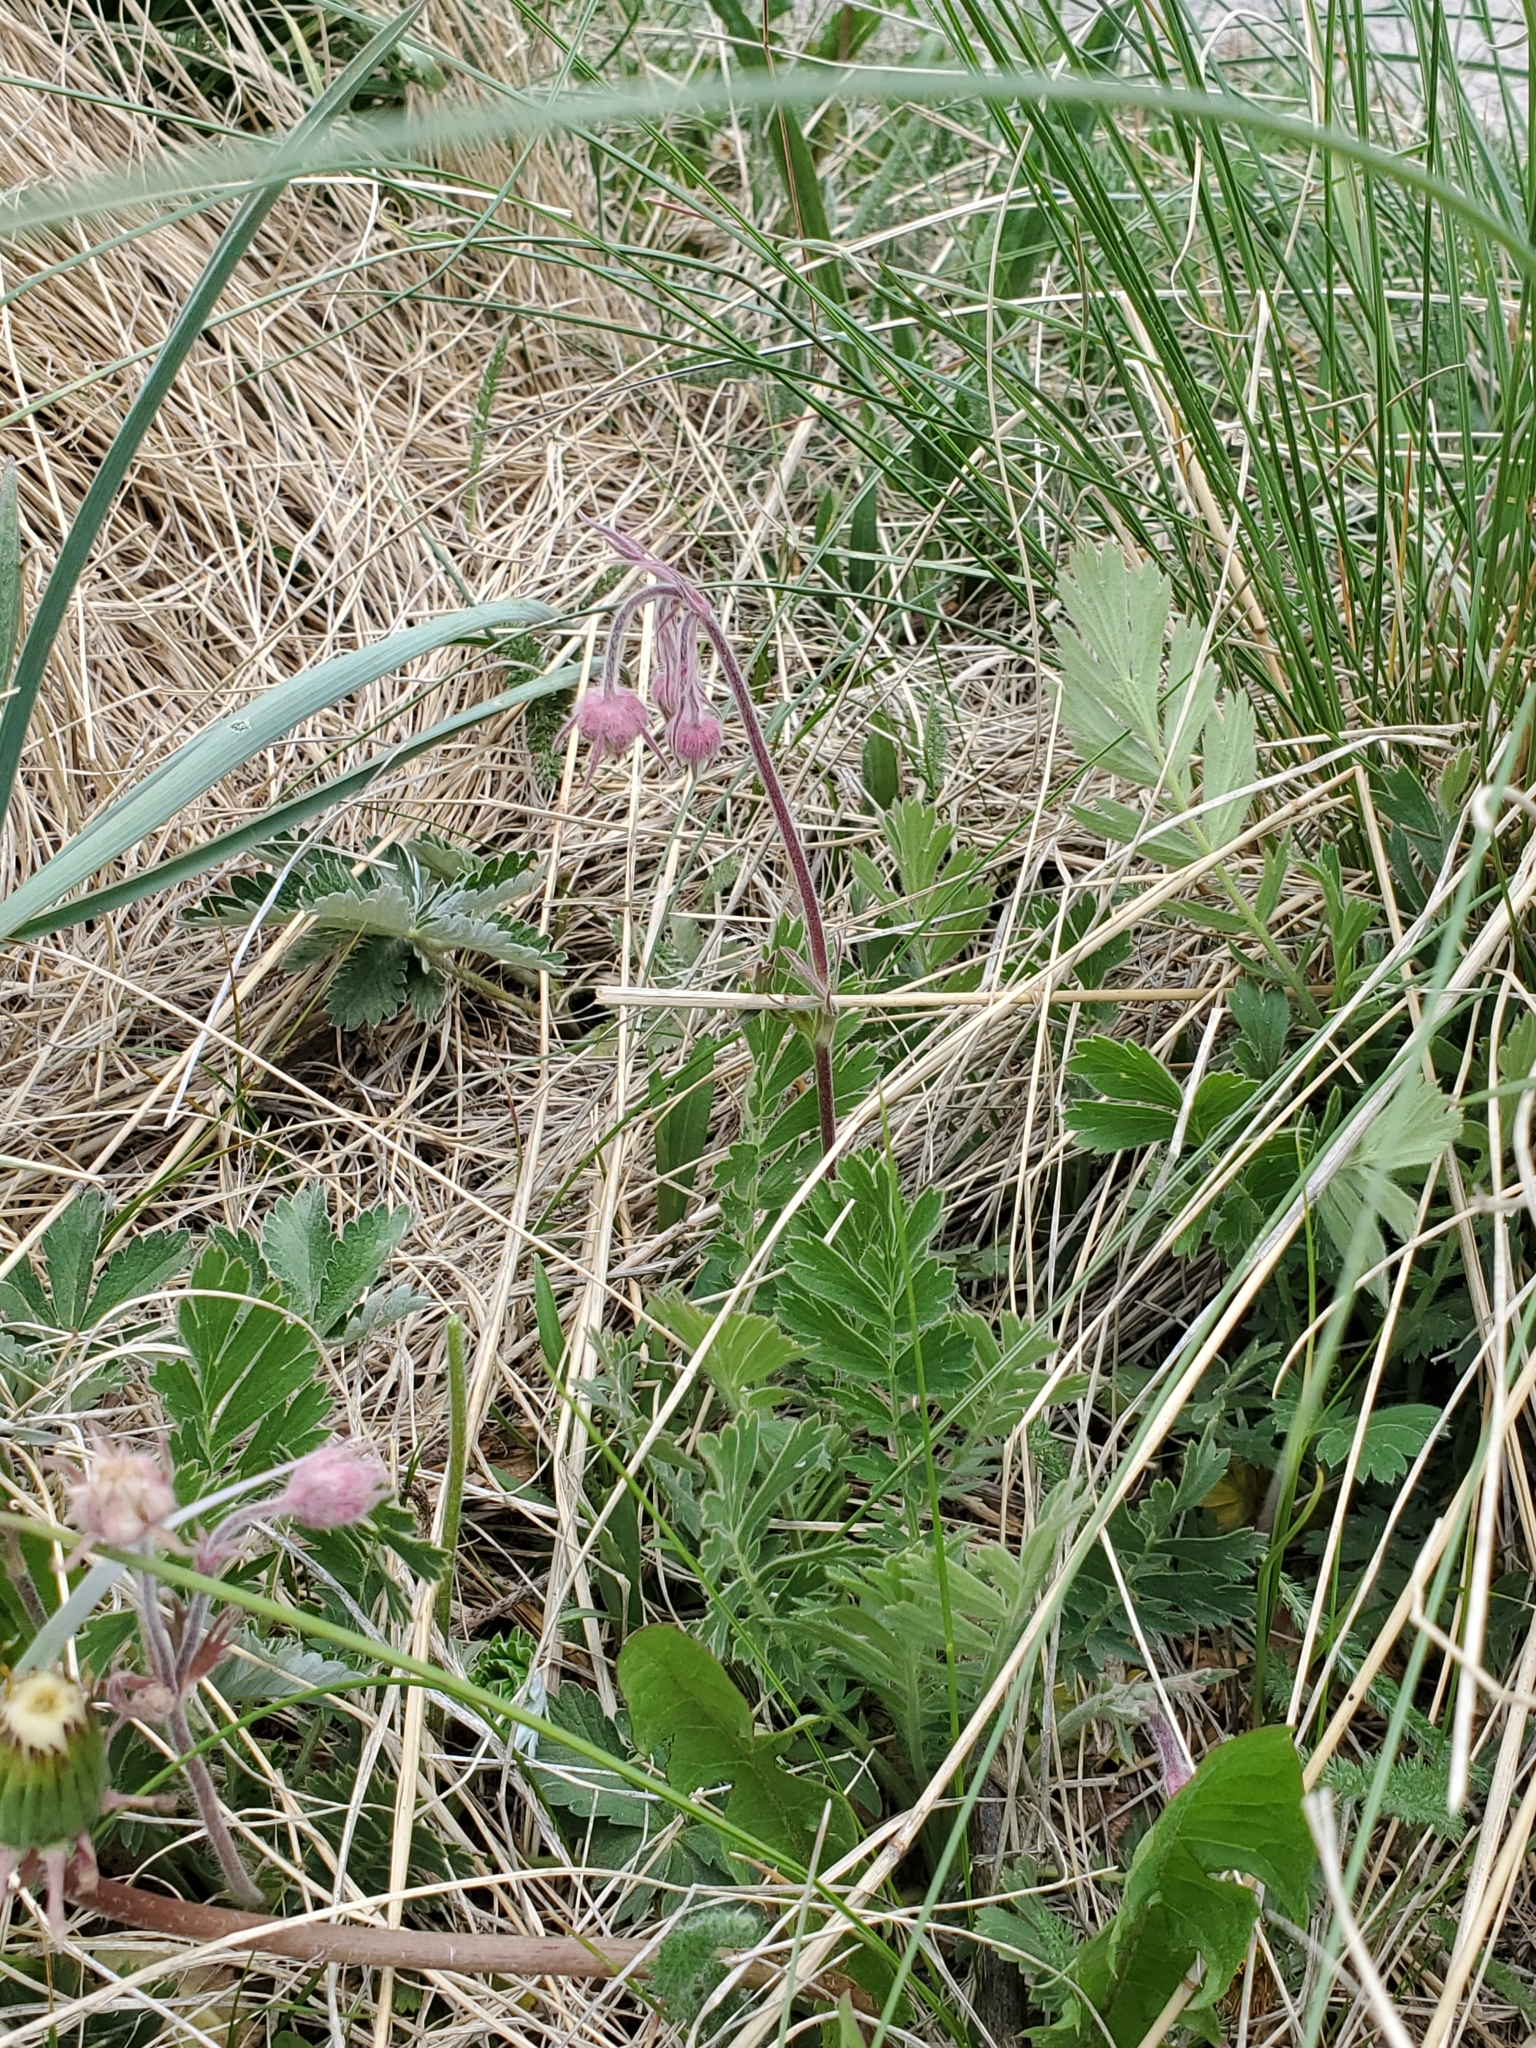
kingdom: Plantae
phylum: Tracheophyta
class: Magnoliopsida
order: Rosales
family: Rosaceae
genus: Geum
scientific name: Geum triflorum
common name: Old man's whiskers
